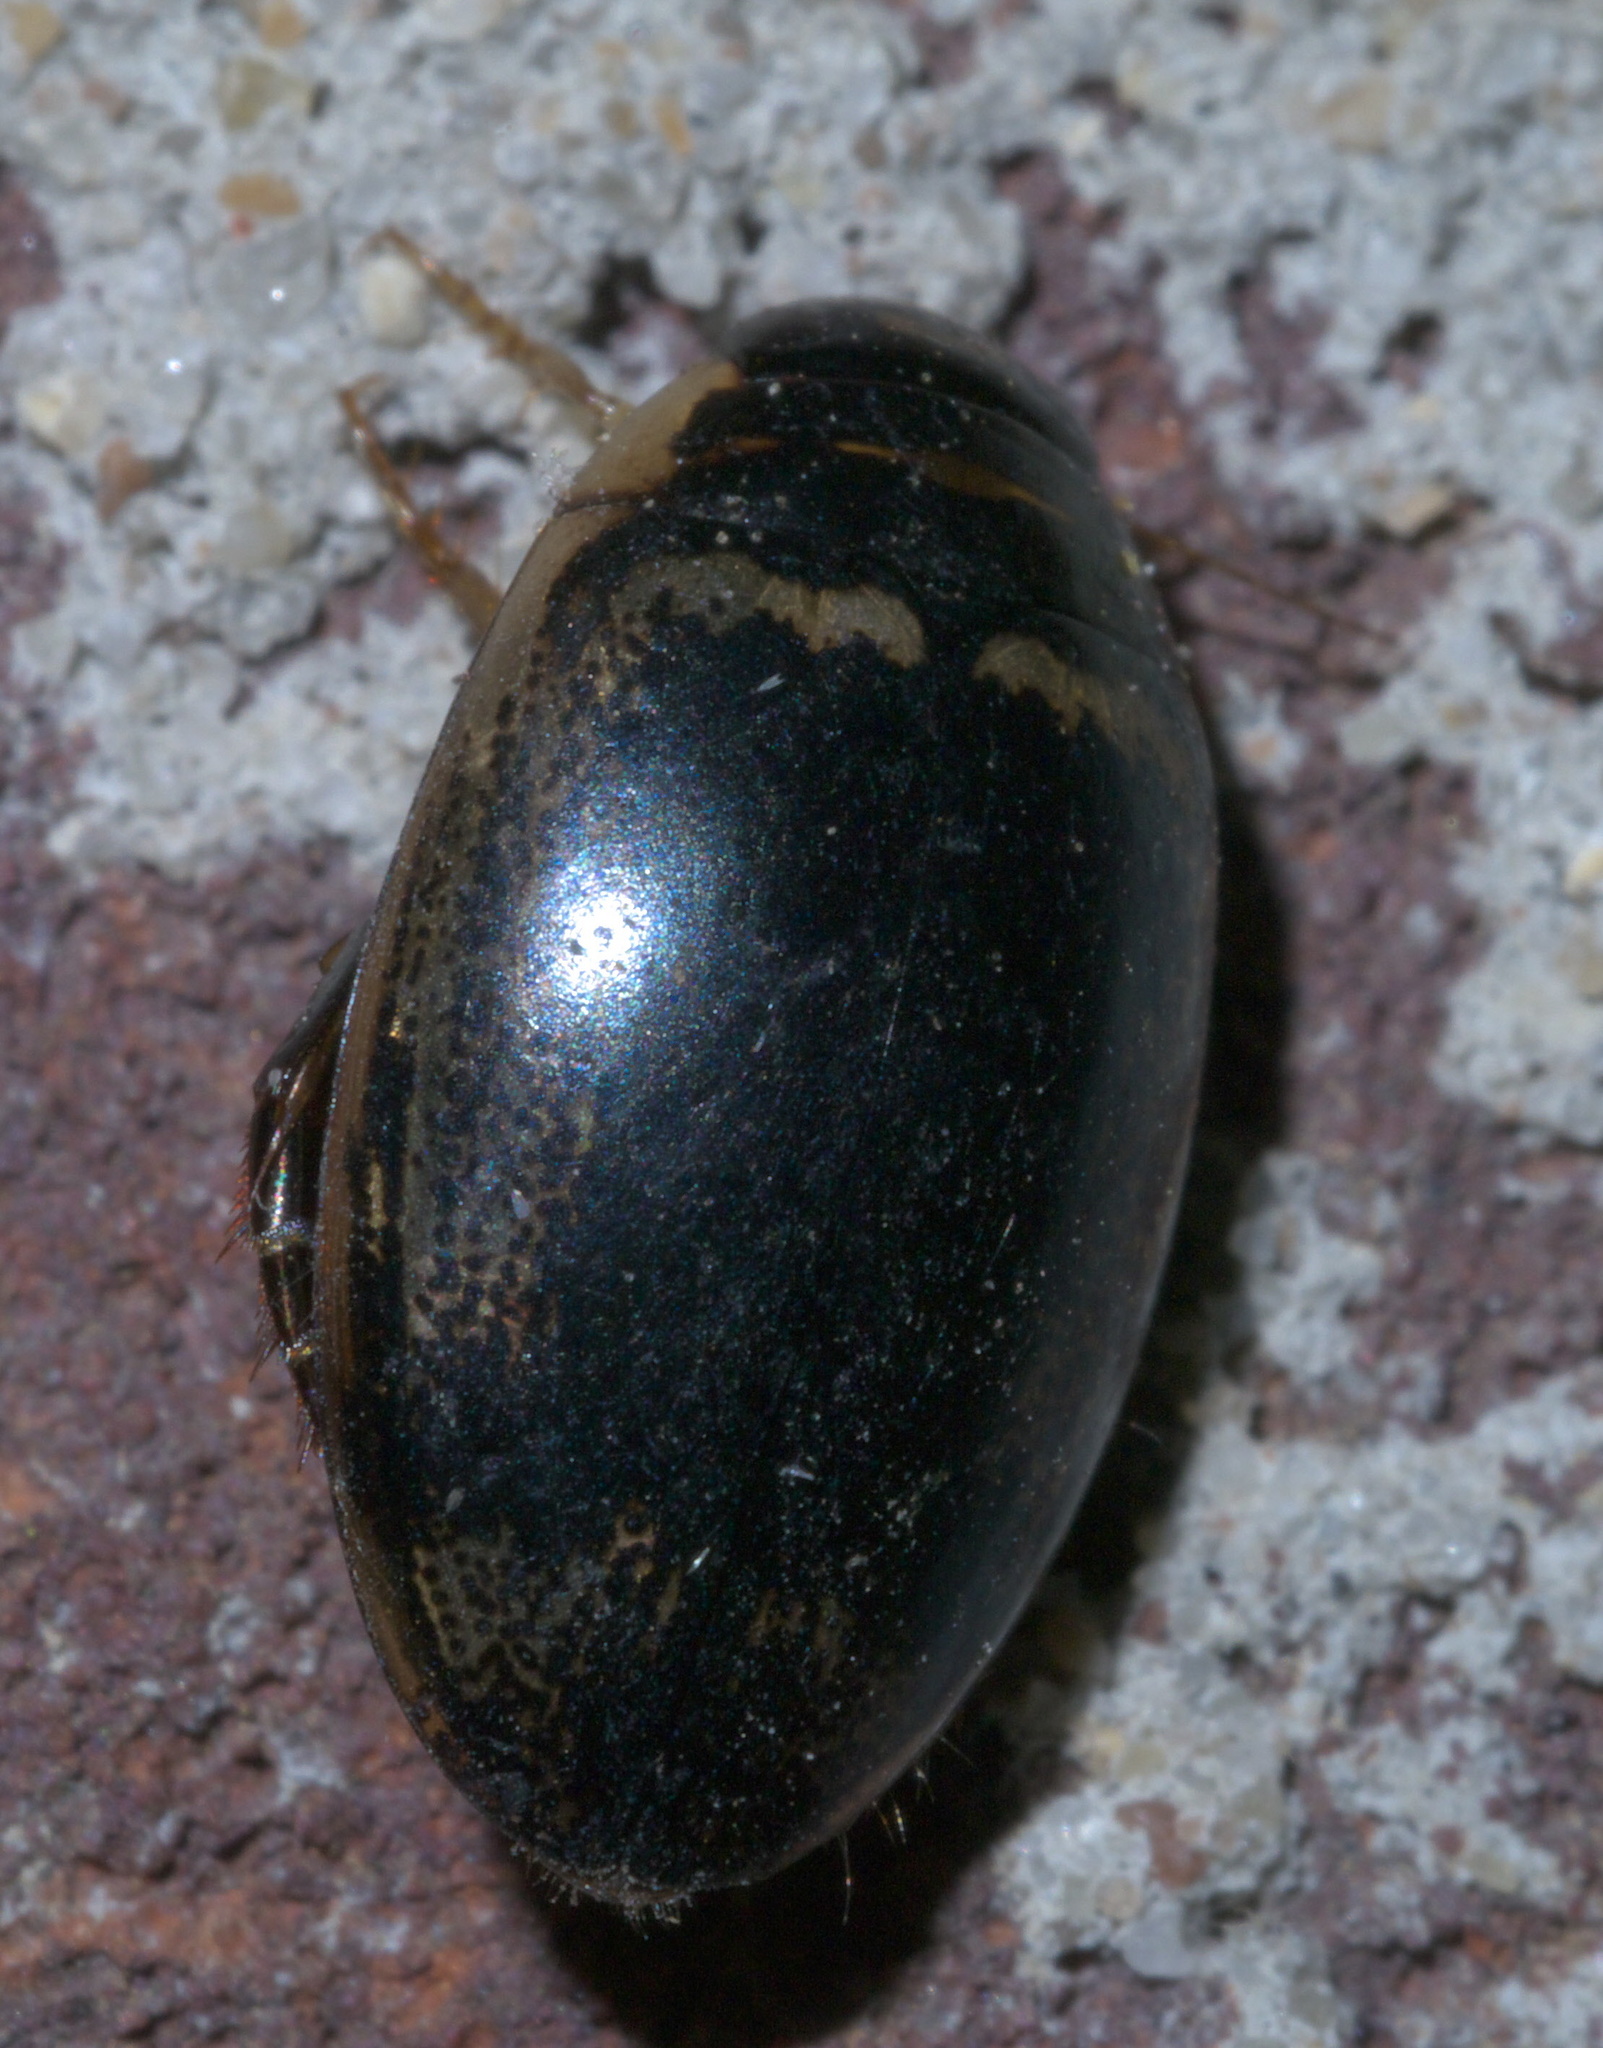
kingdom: Animalia
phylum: Arthropoda
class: Insecta
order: Coleoptera
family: Dytiscidae
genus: Thermonectus
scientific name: Thermonectus basillaris
